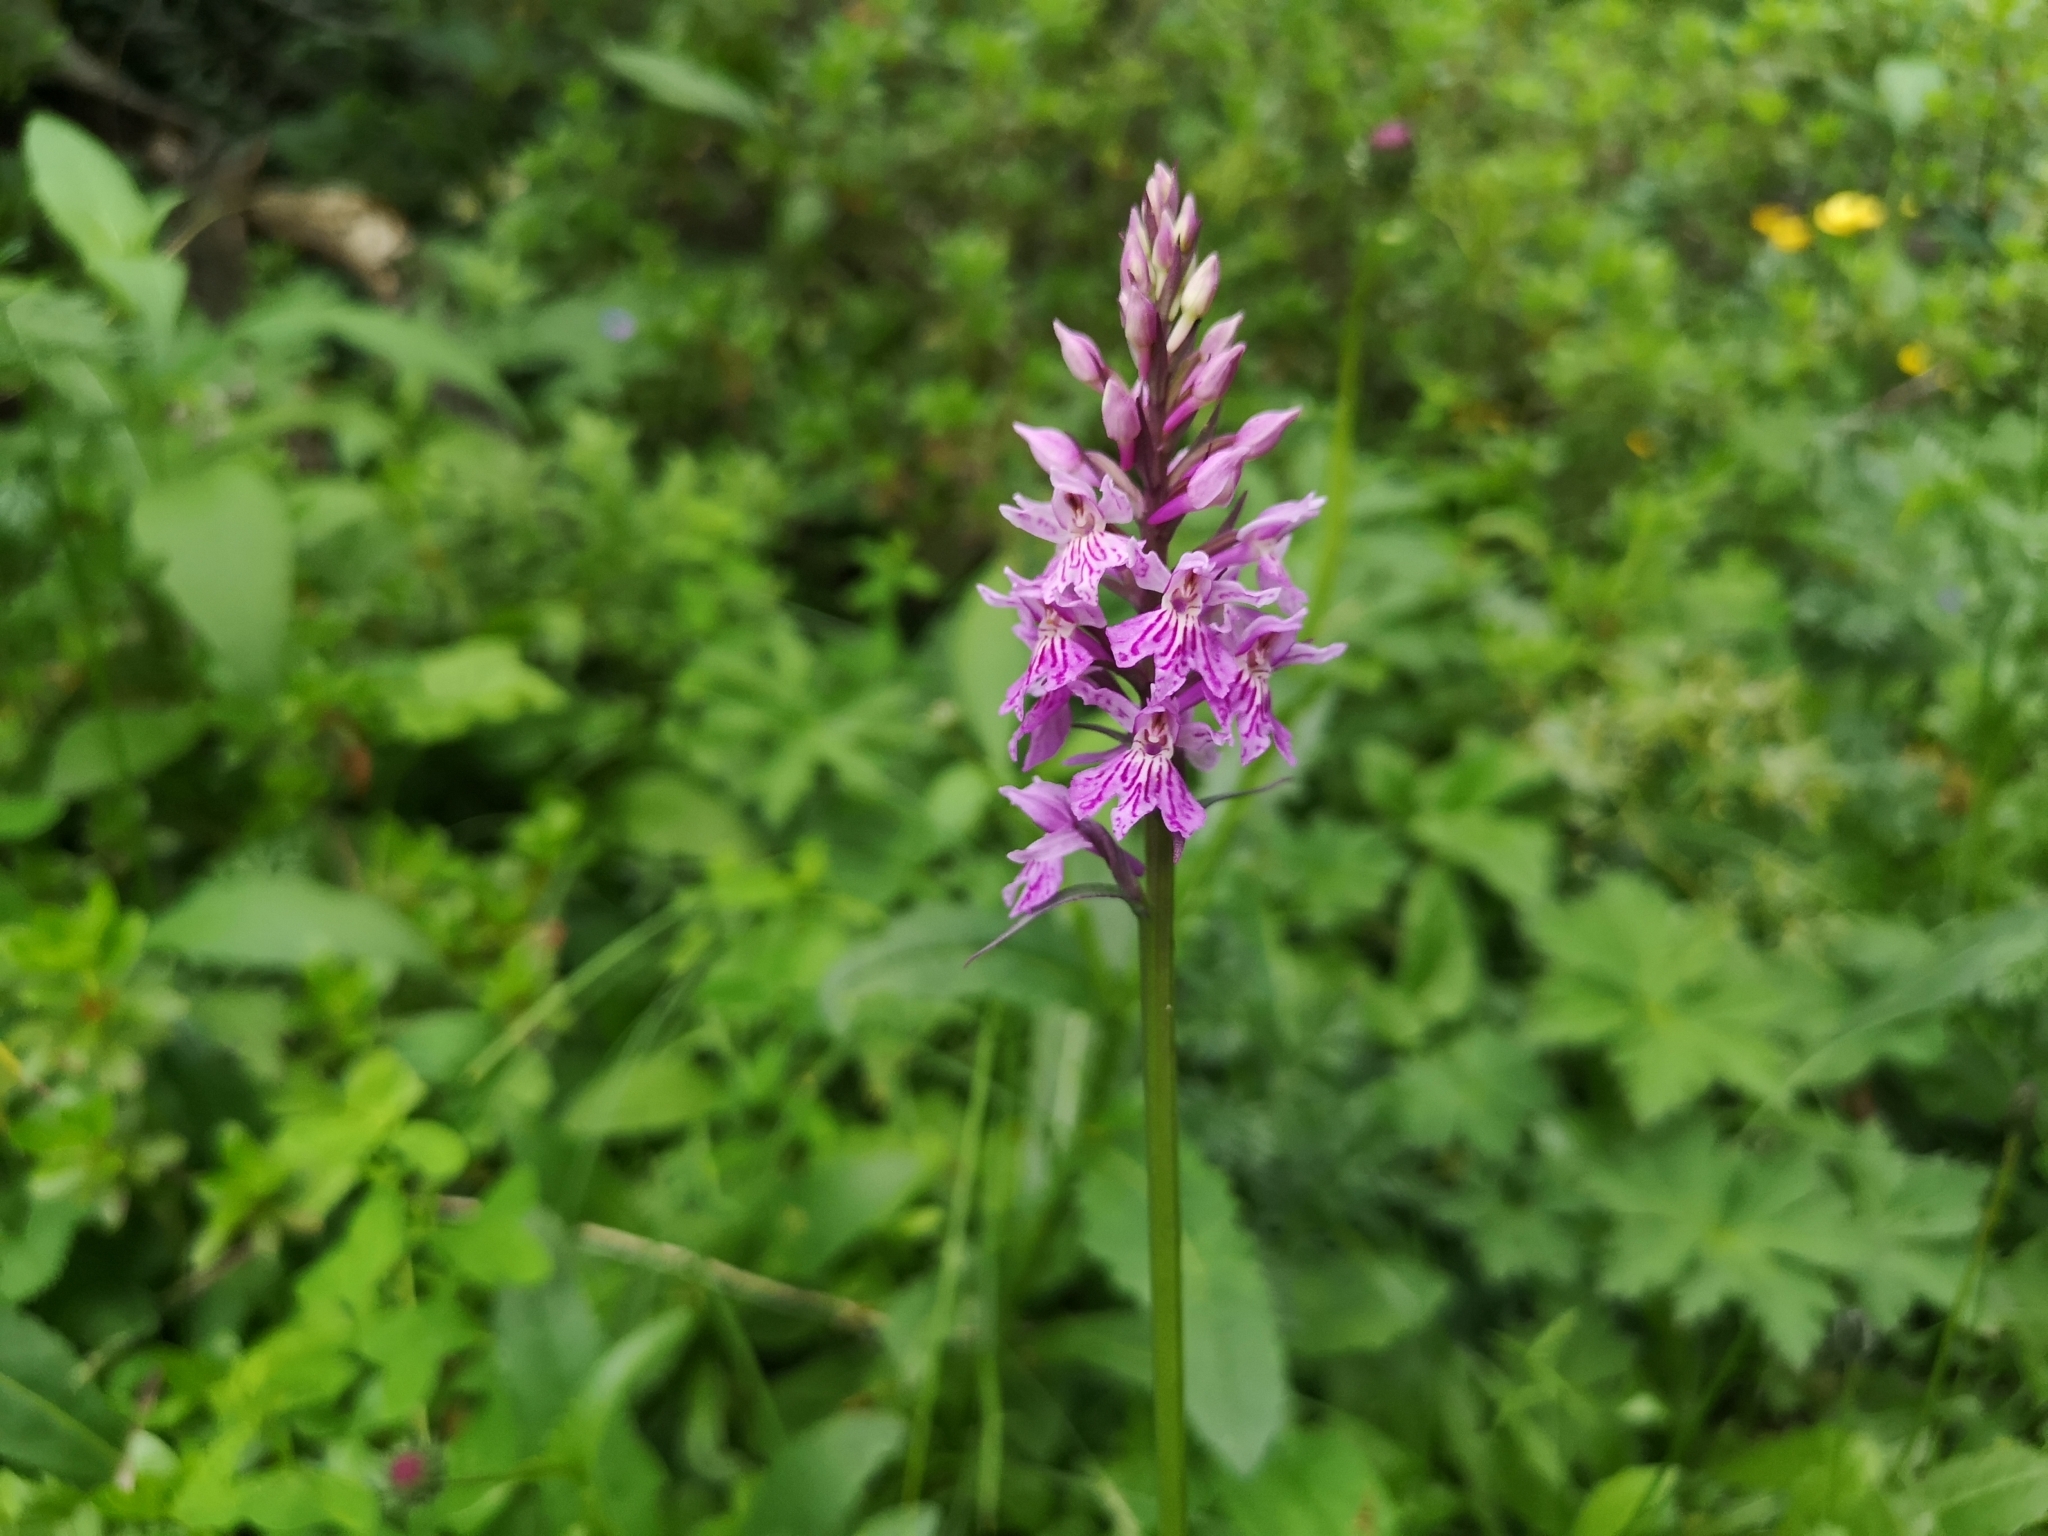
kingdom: Plantae
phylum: Tracheophyta
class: Liliopsida
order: Asparagales
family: Orchidaceae
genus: Dactylorhiza
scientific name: Dactylorhiza maculata
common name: Heath spotted-orchid
